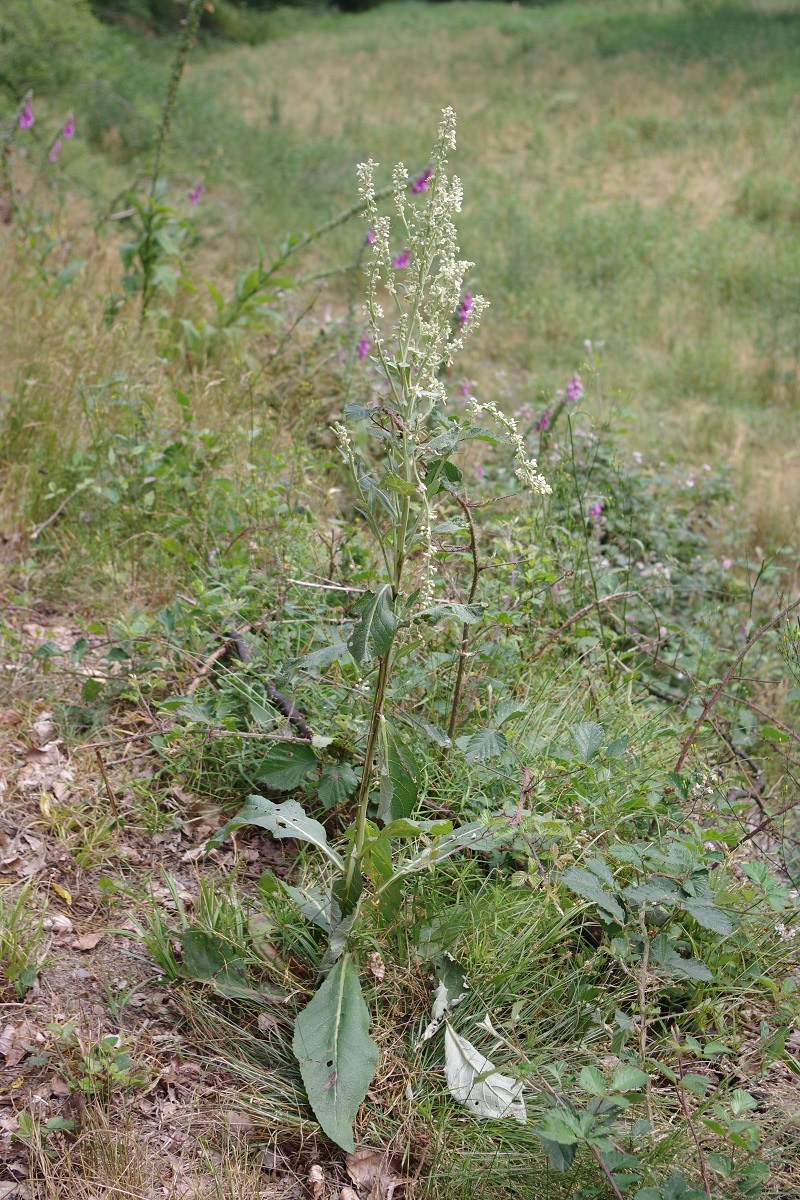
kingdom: Plantae
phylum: Tracheophyta
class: Magnoliopsida
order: Lamiales
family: Scrophulariaceae
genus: Verbascum
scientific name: Verbascum lychnitis
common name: White mullein
